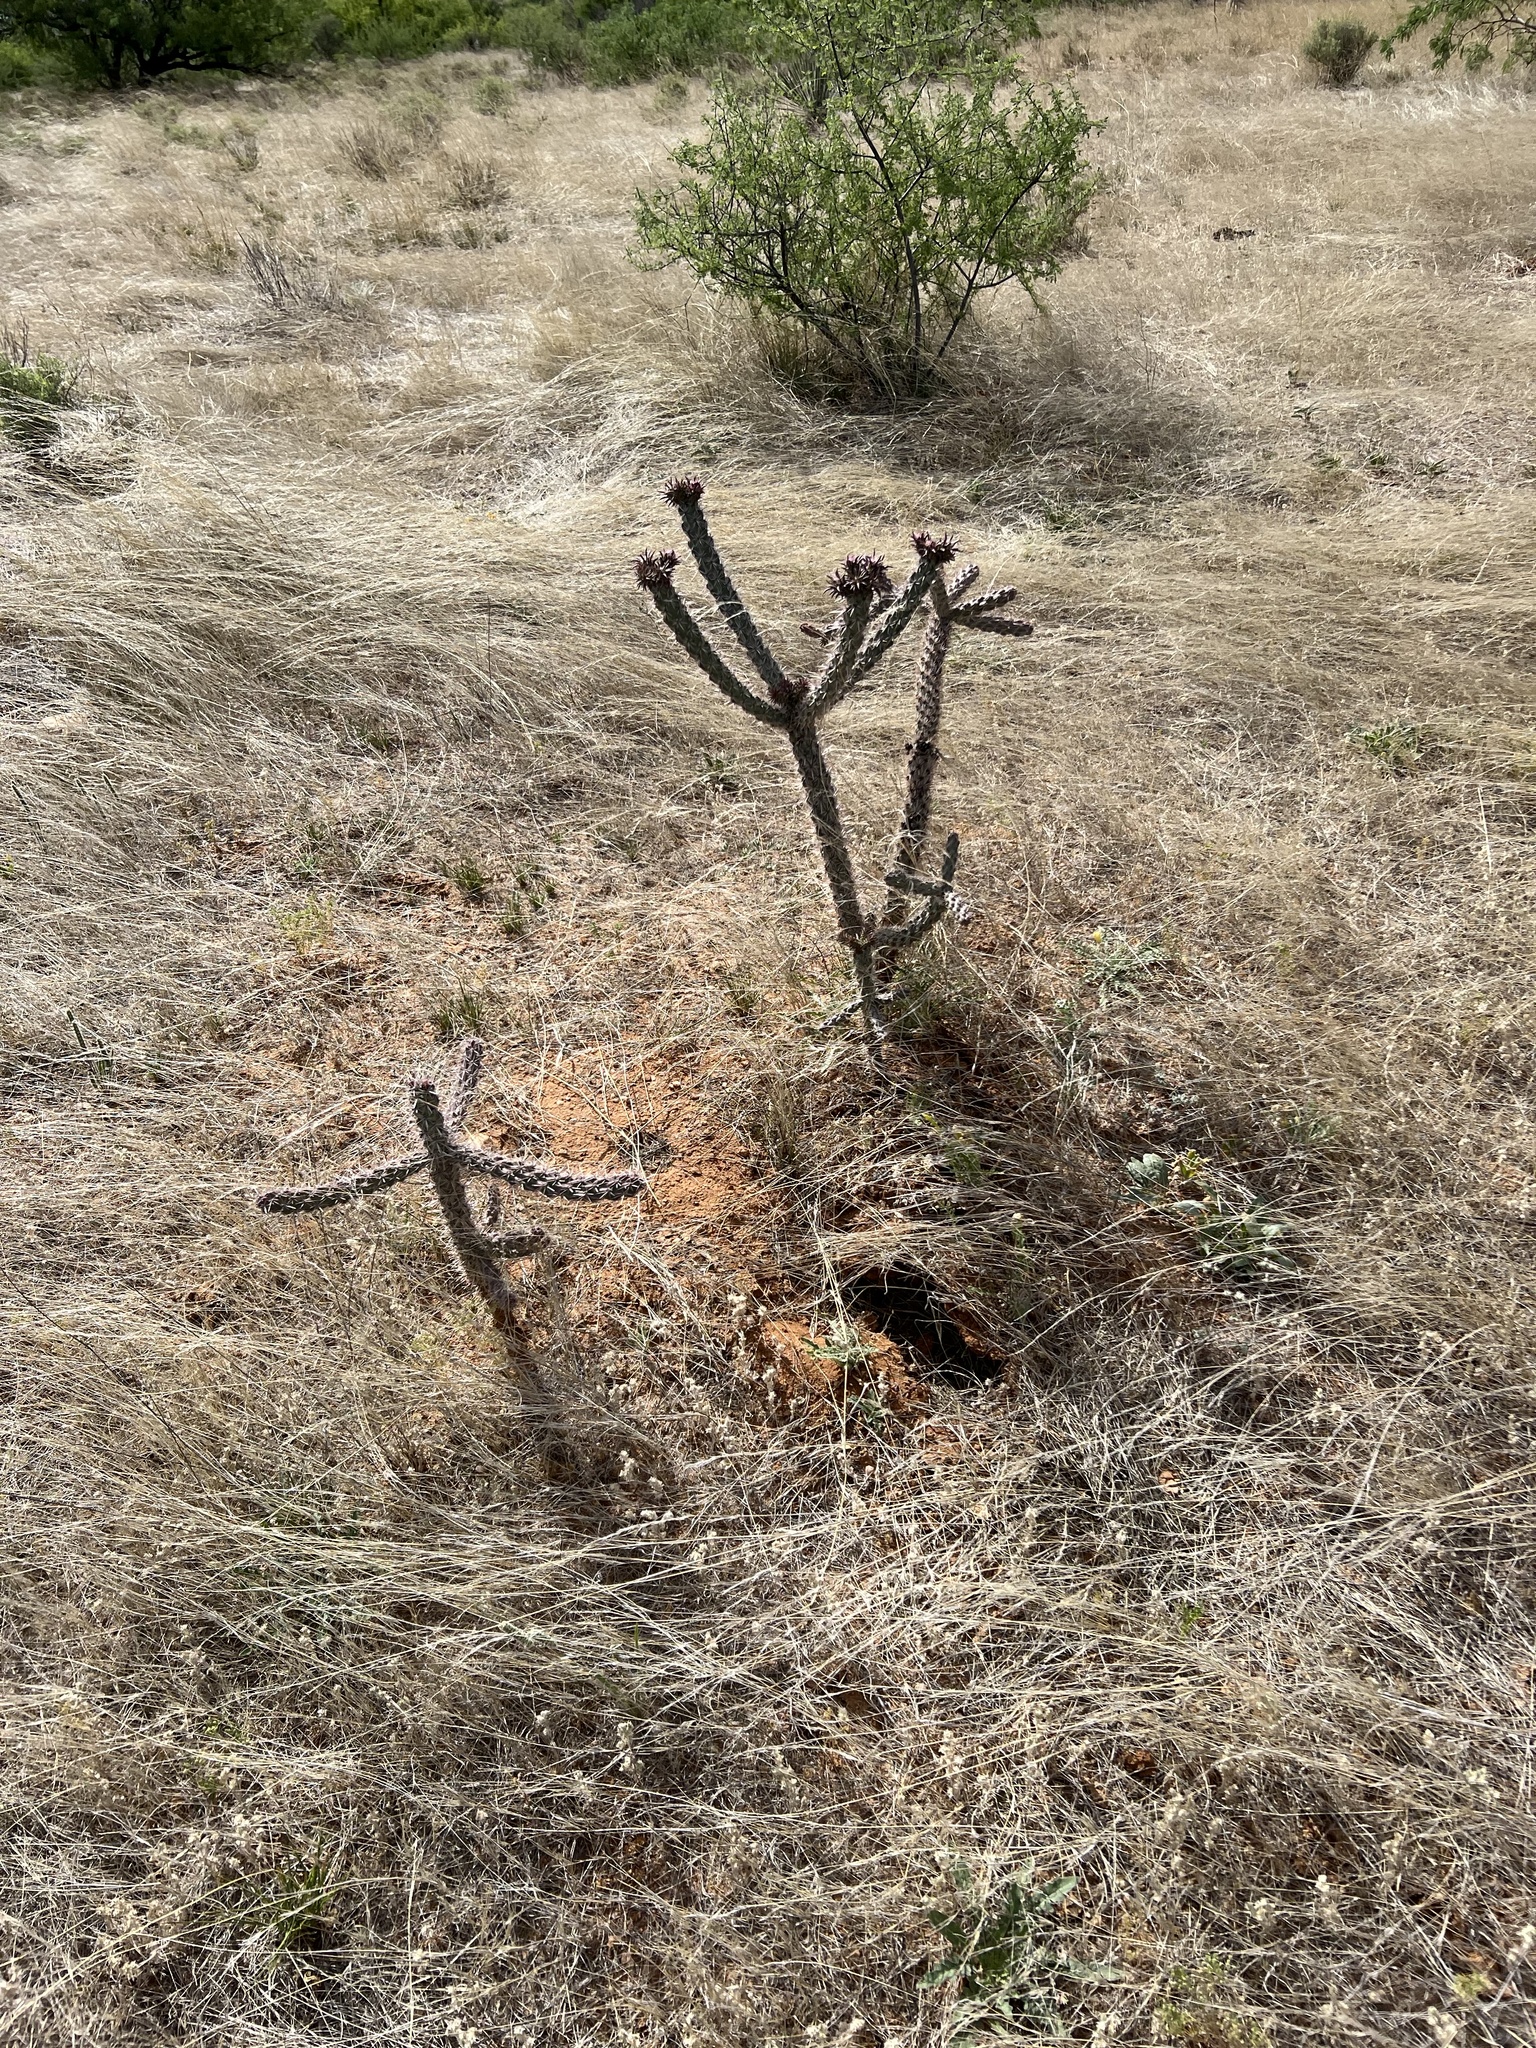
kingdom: Plantae
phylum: Tracheophyta
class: Magnoliopsida
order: Caryophyllales
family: Cactaceae
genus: Cylindropuntia
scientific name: Cylindropuntia imbricata
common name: Candelabrum cactus
